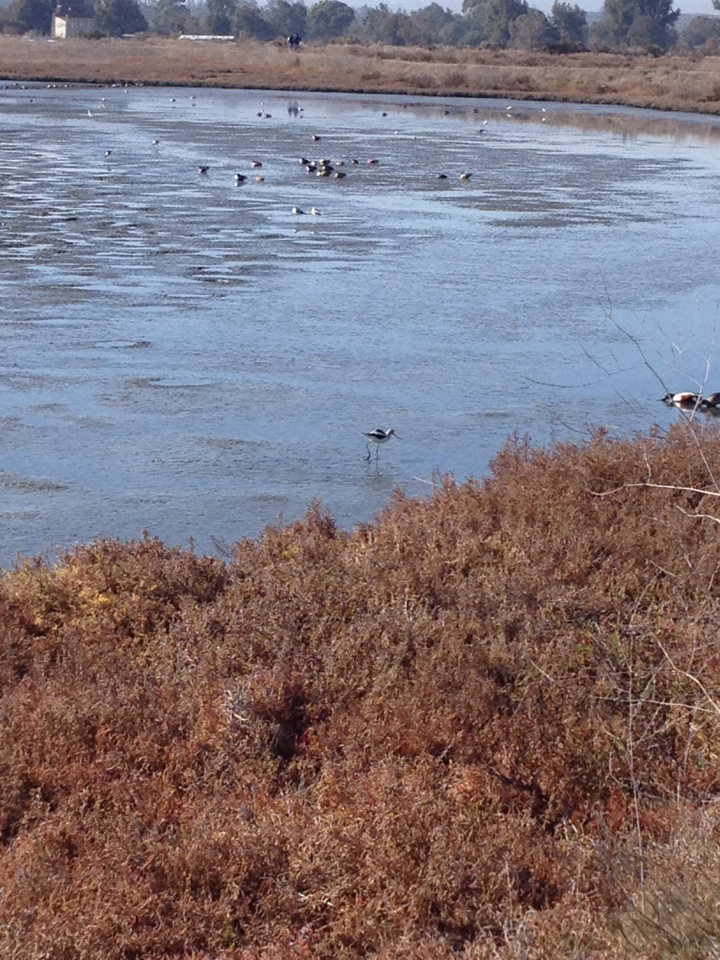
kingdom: Animalia
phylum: Chordata
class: Aves
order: Charadriiformes
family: Recurvirostridae
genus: Recurvirostra
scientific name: Recurvirostra americana
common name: American avocet
